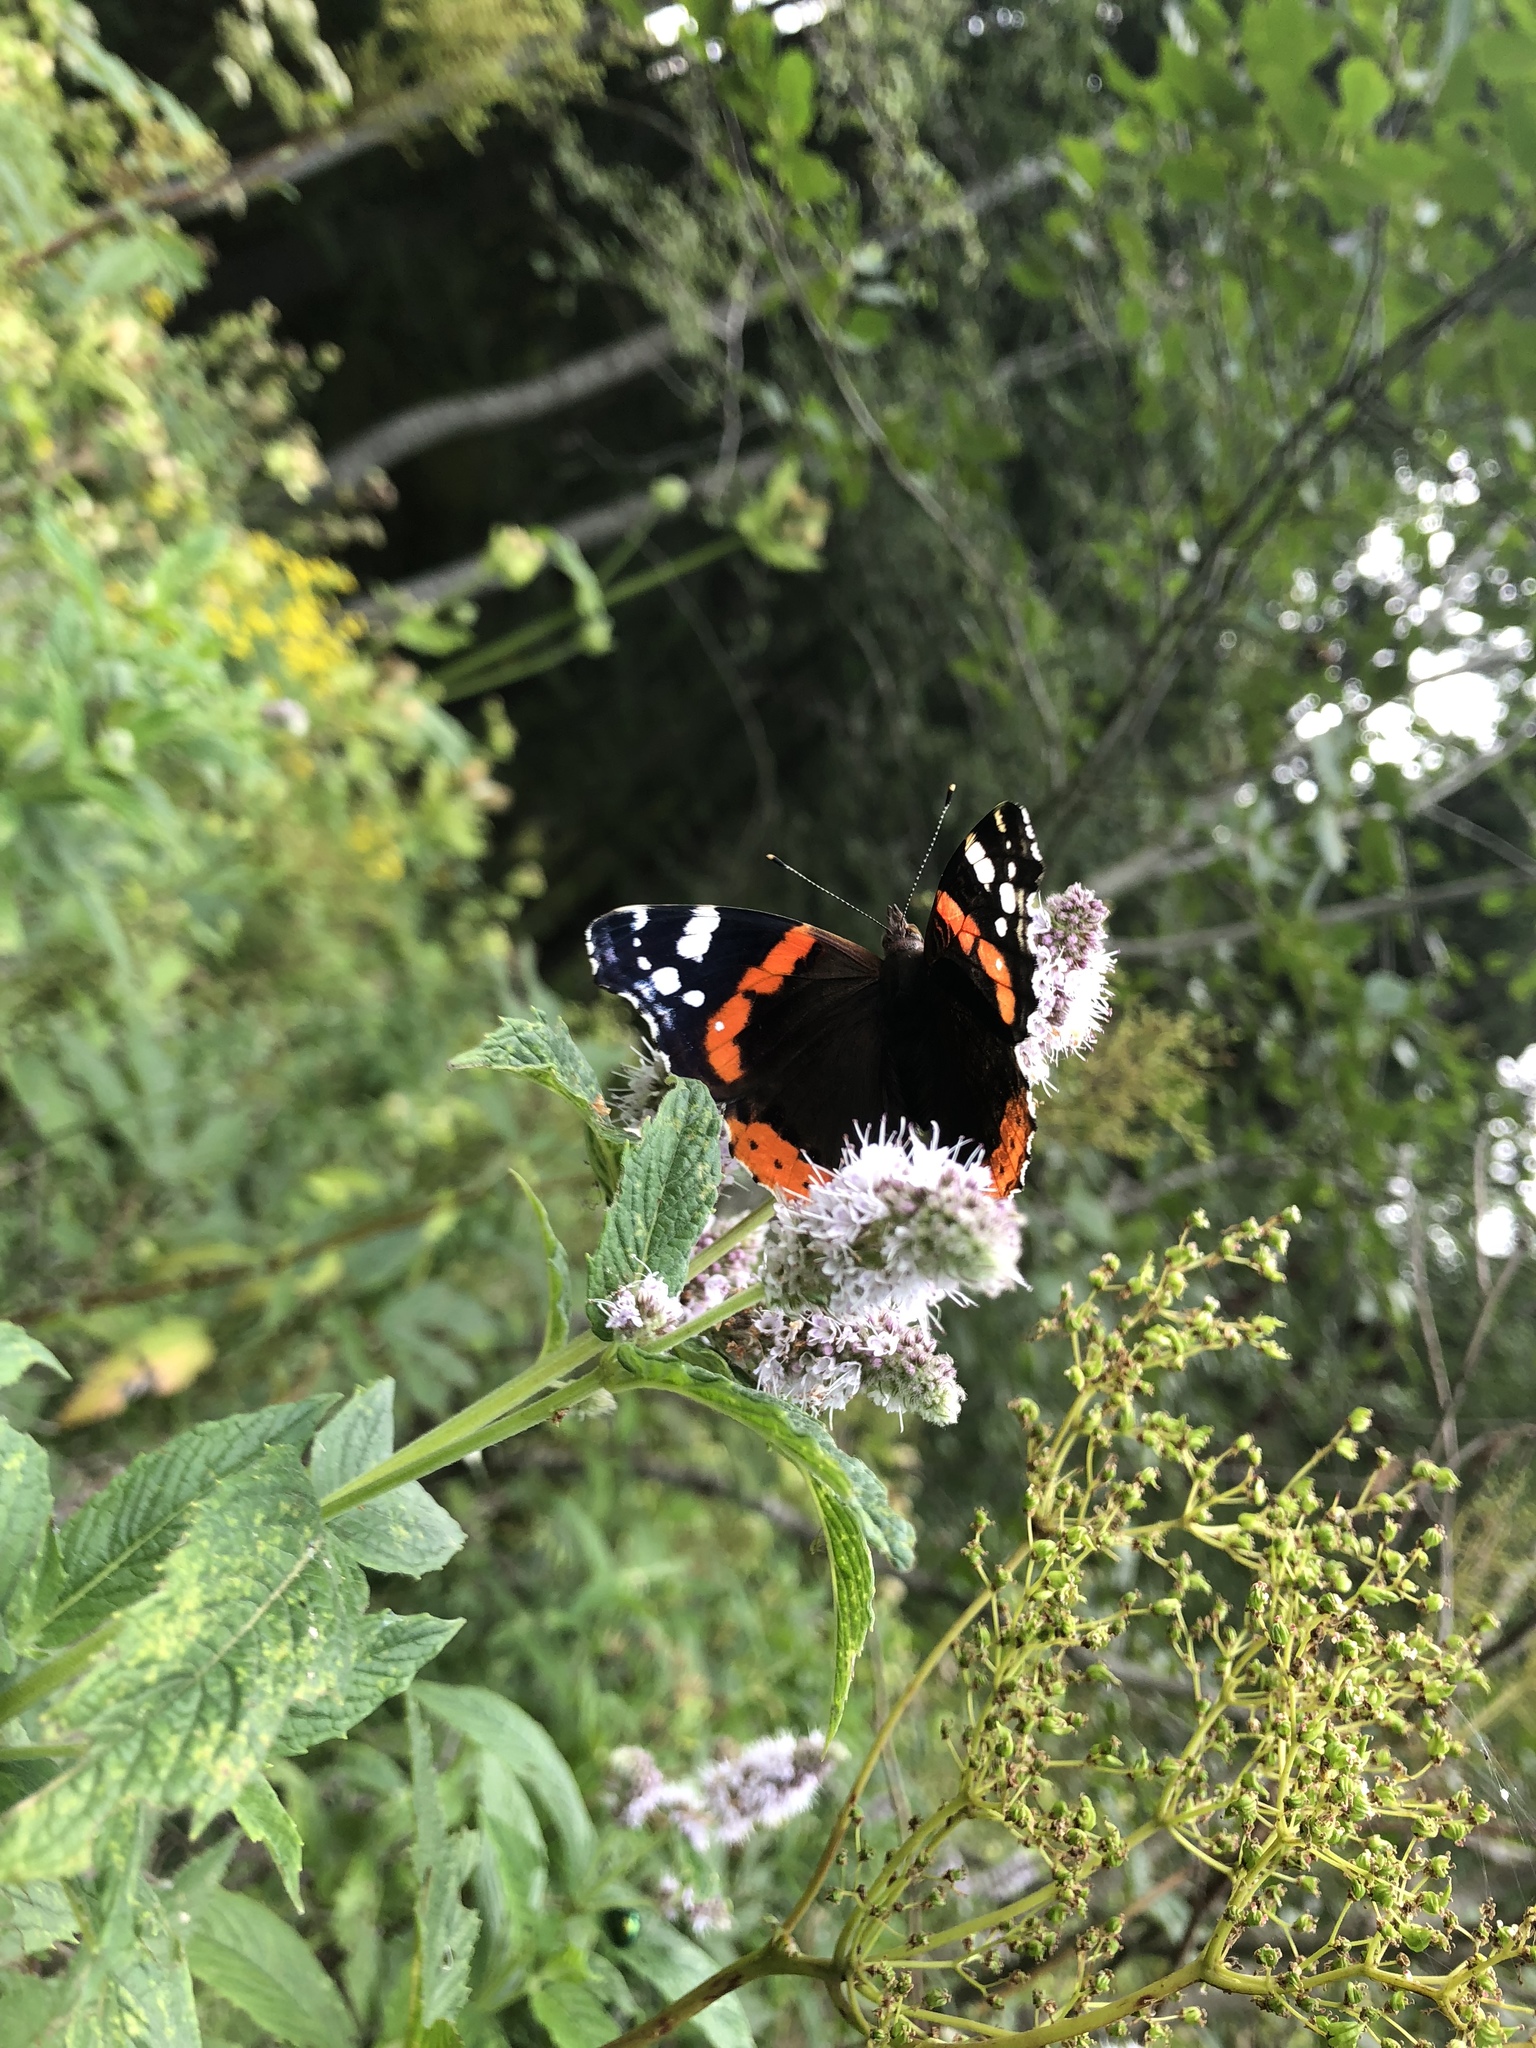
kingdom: Animalia
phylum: Arthropoda
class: Insecta
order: Lepidoptera
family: Nymphalidae
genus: Vanessa
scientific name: Vanessa atalanta
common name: Red admiral
